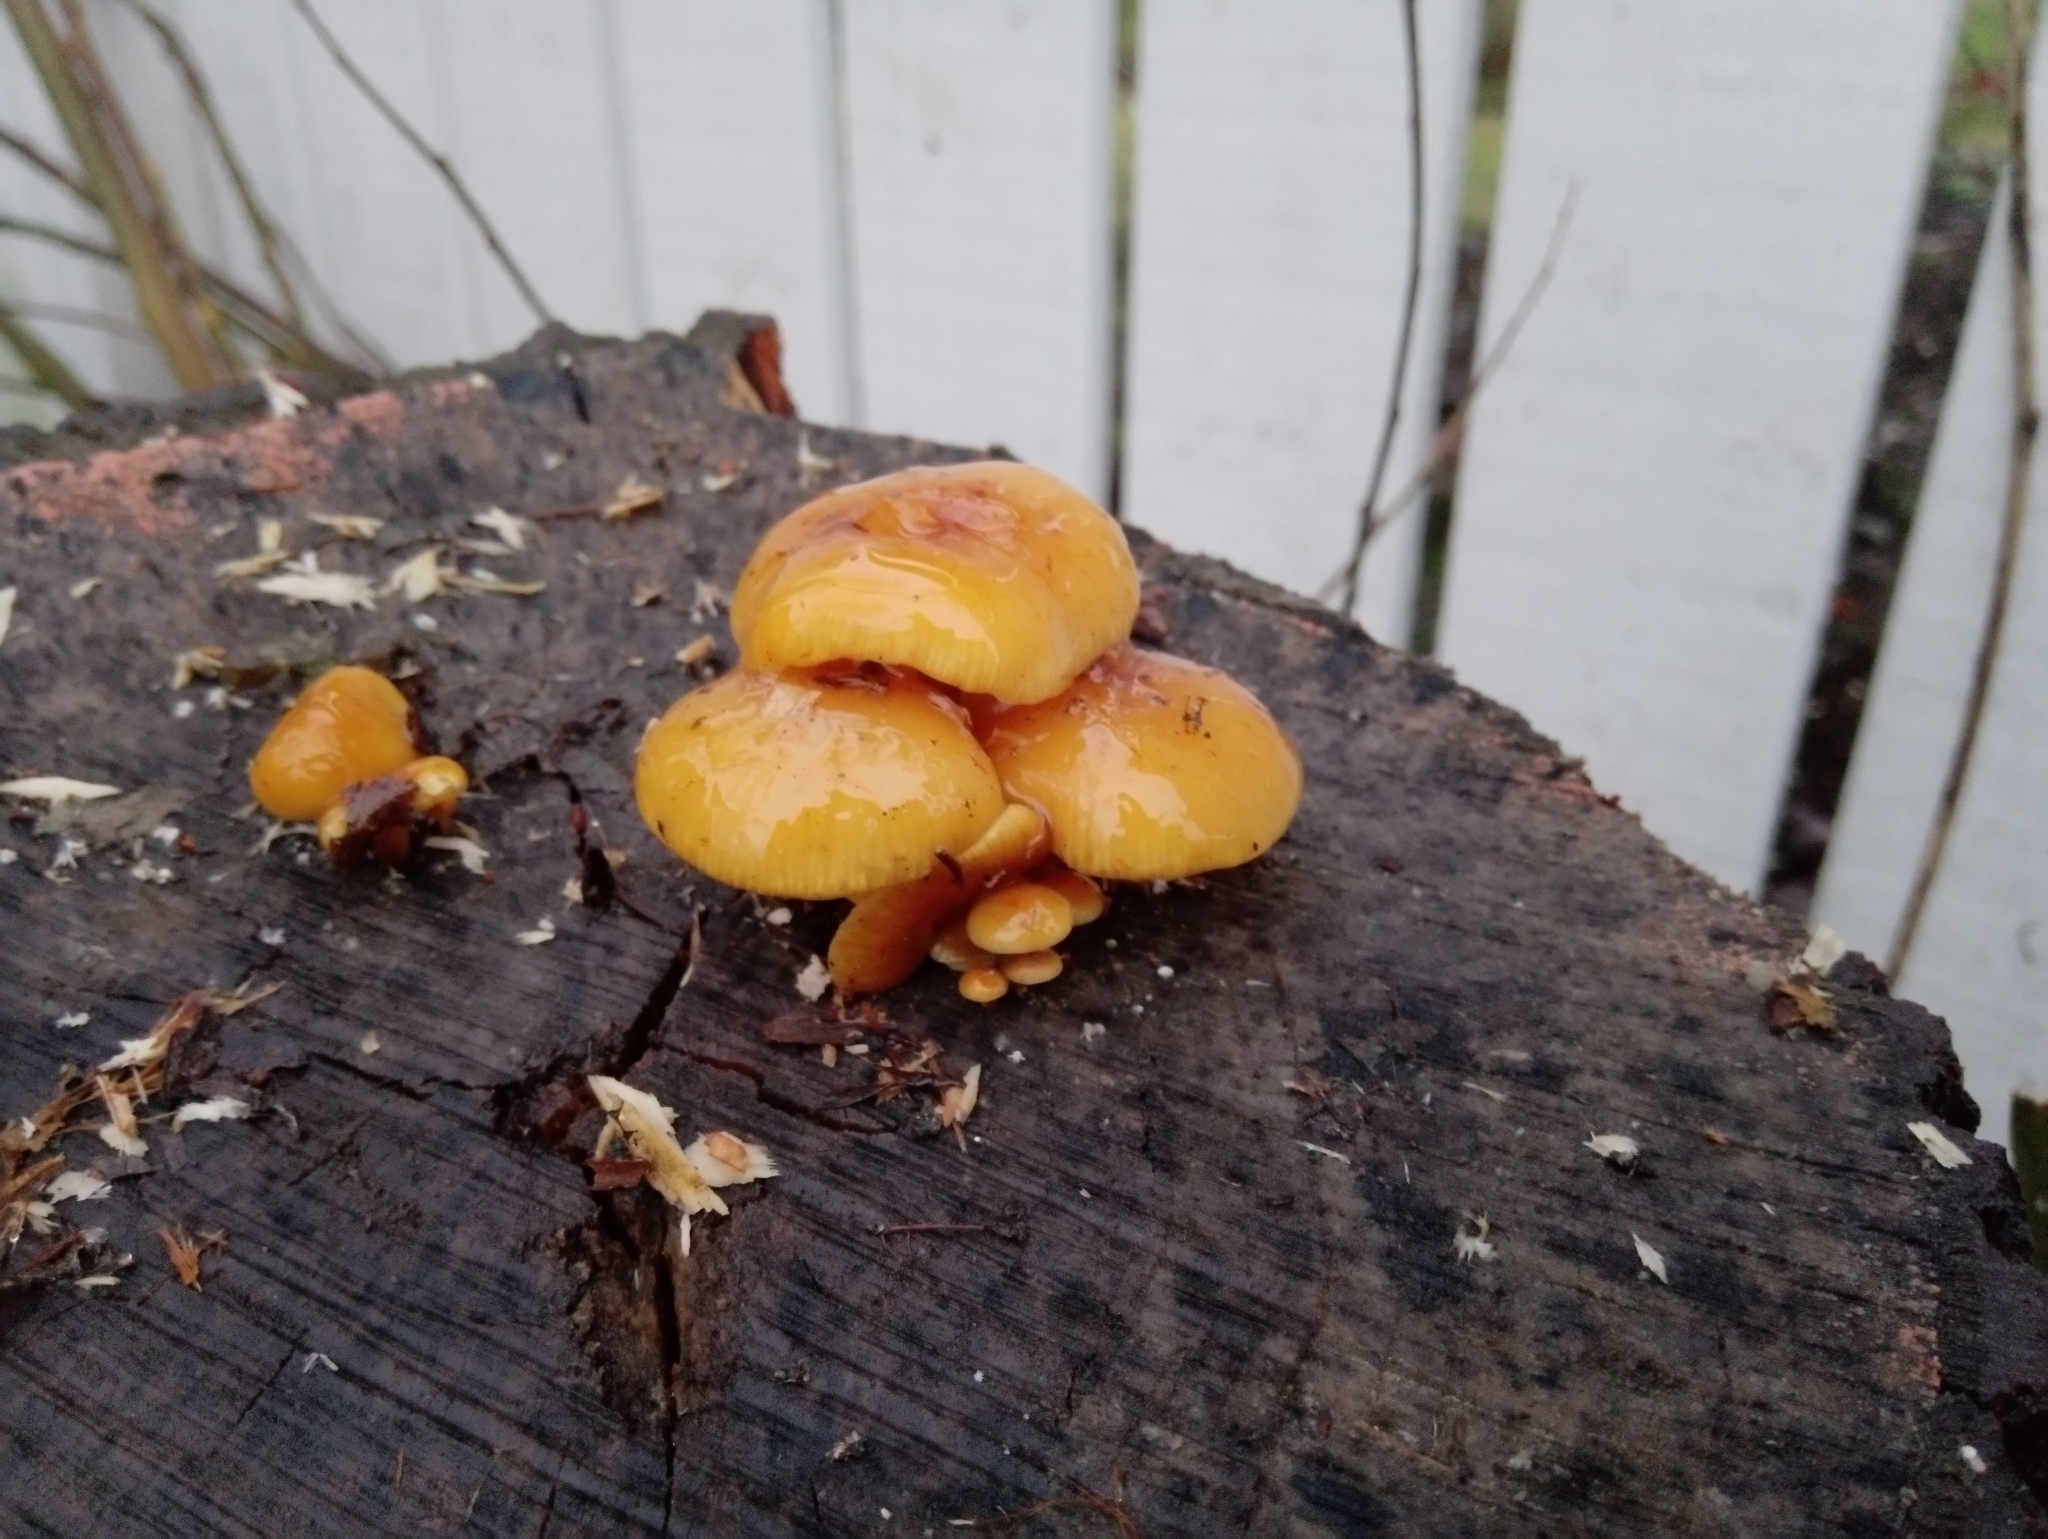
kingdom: Fungi
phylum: Basidiomycota
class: Agaricomycetes
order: Agaricales
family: Physalacriaceae
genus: Flammulina
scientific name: Flammulina
